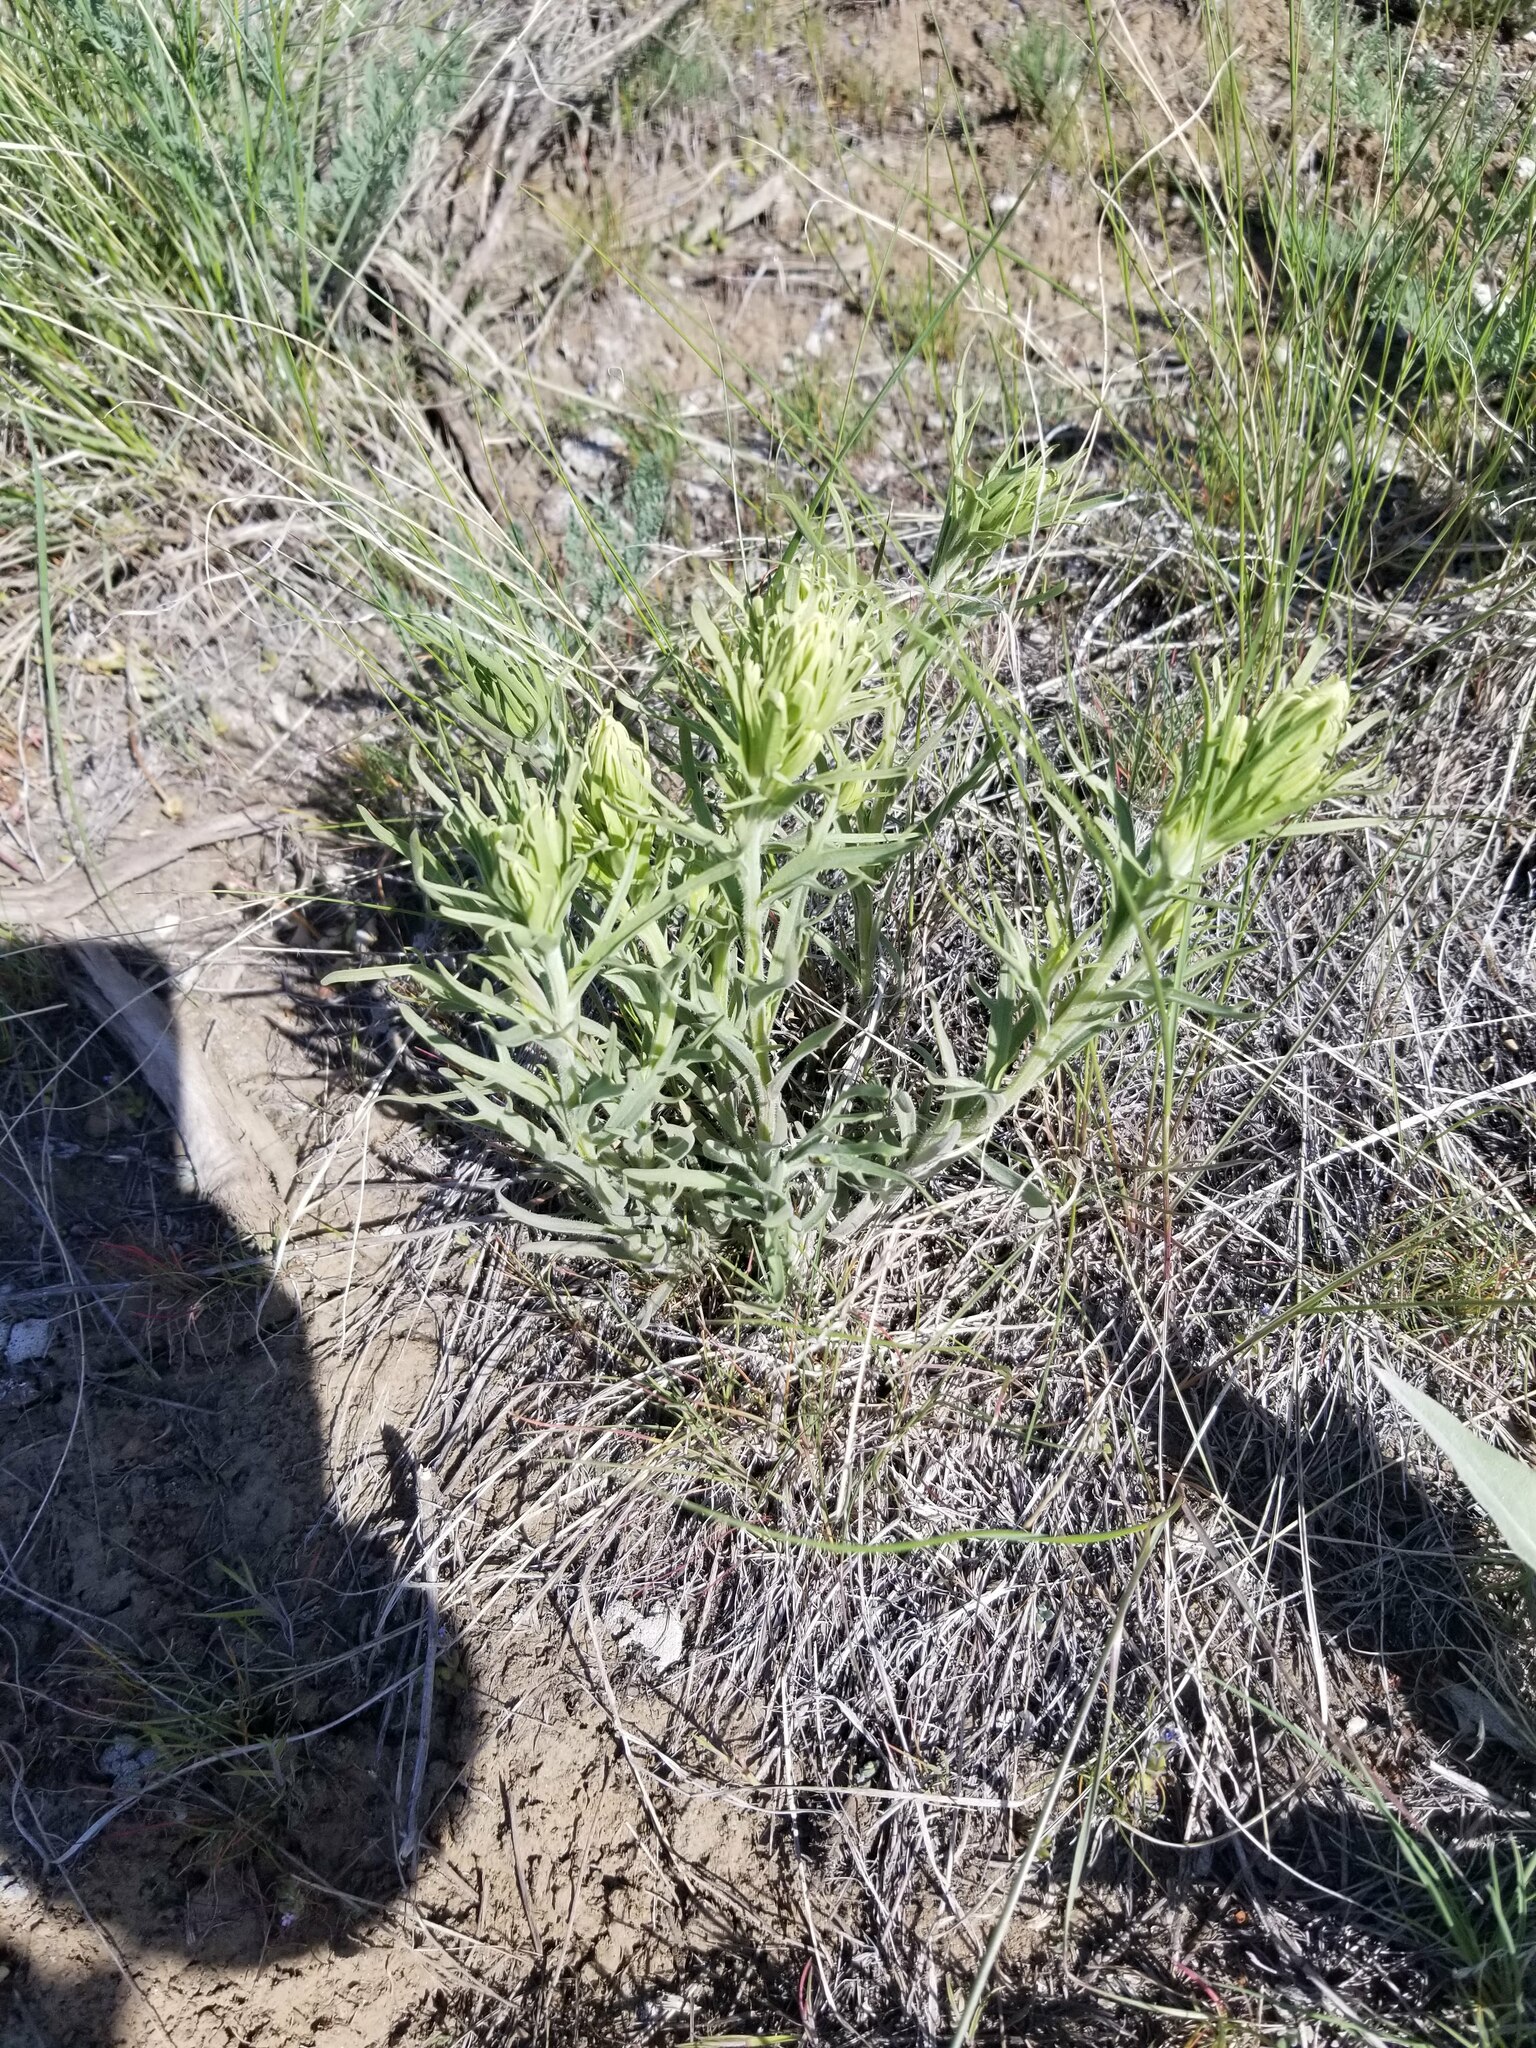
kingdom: Plantae
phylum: Tracheophyta
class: Magnoliopsida
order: Lamiales
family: Orobanchaceae
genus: Castilleja
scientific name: Castilleja thompsonii
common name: Thompson's paintbrush
